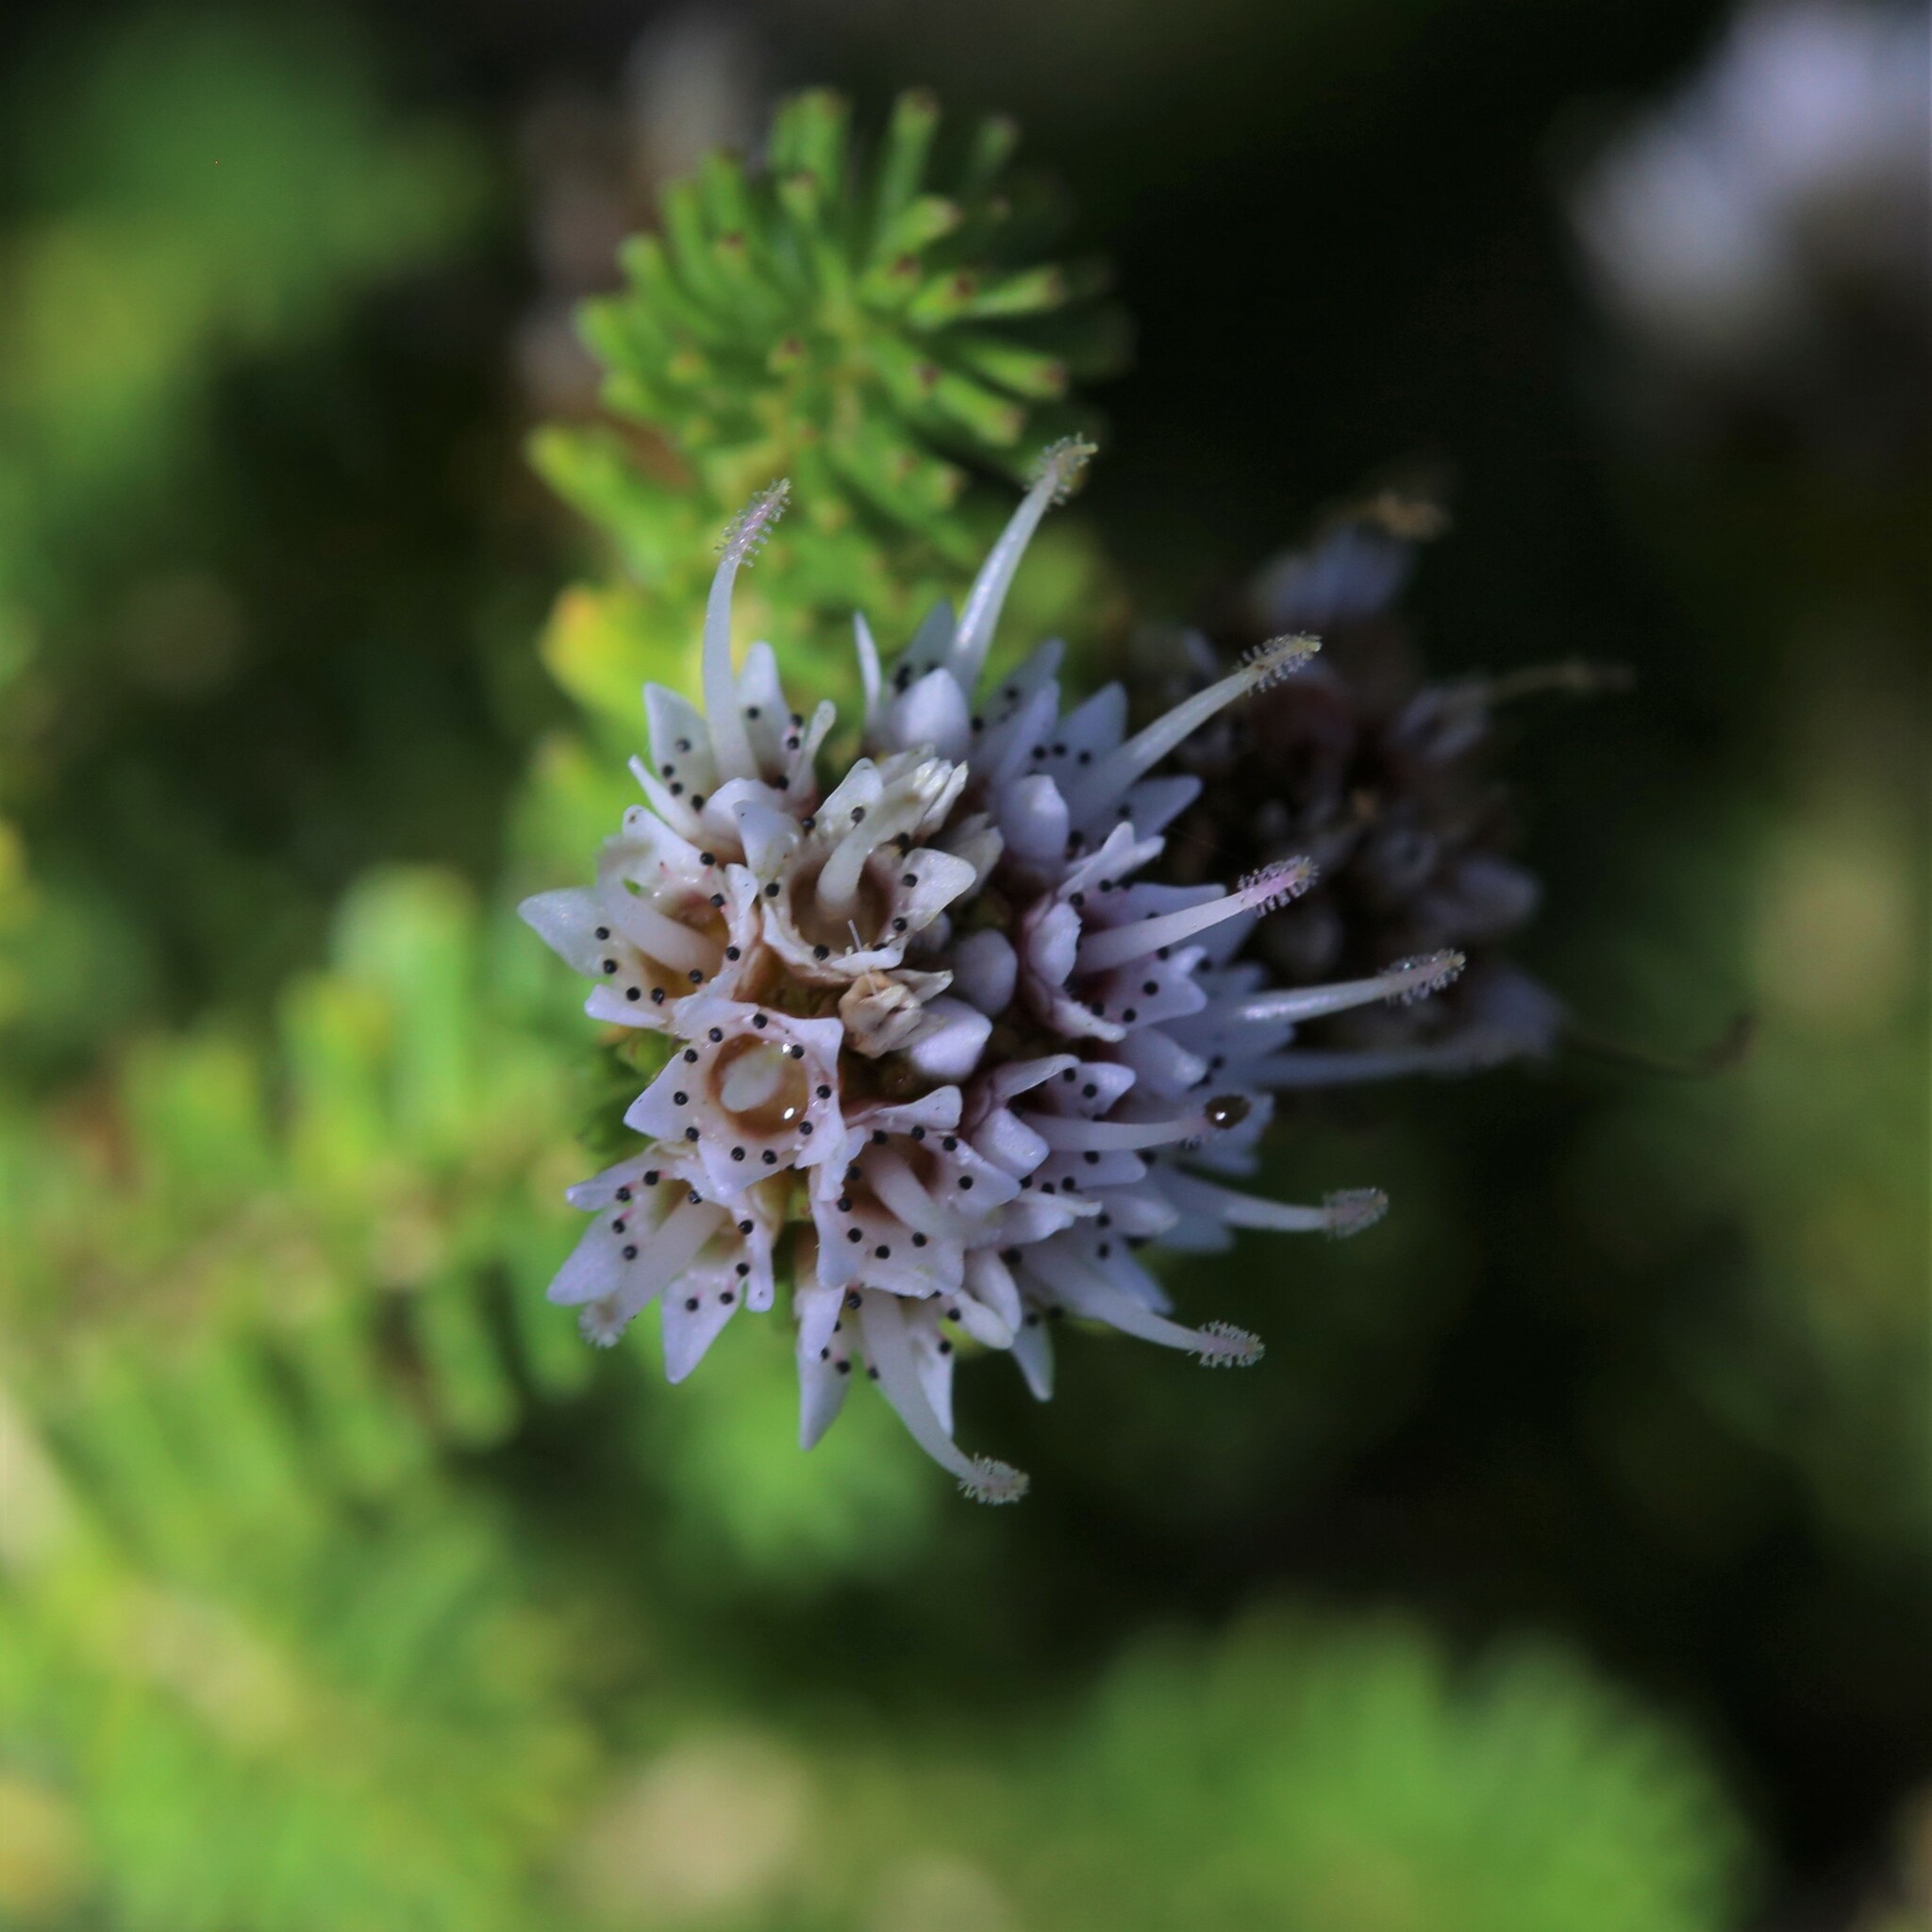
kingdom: Plantae
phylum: Tracheophyta
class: Magnoliopsida
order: Myrtales
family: Myrtaceae
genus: Darwinia
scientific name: Darwinia vestita
